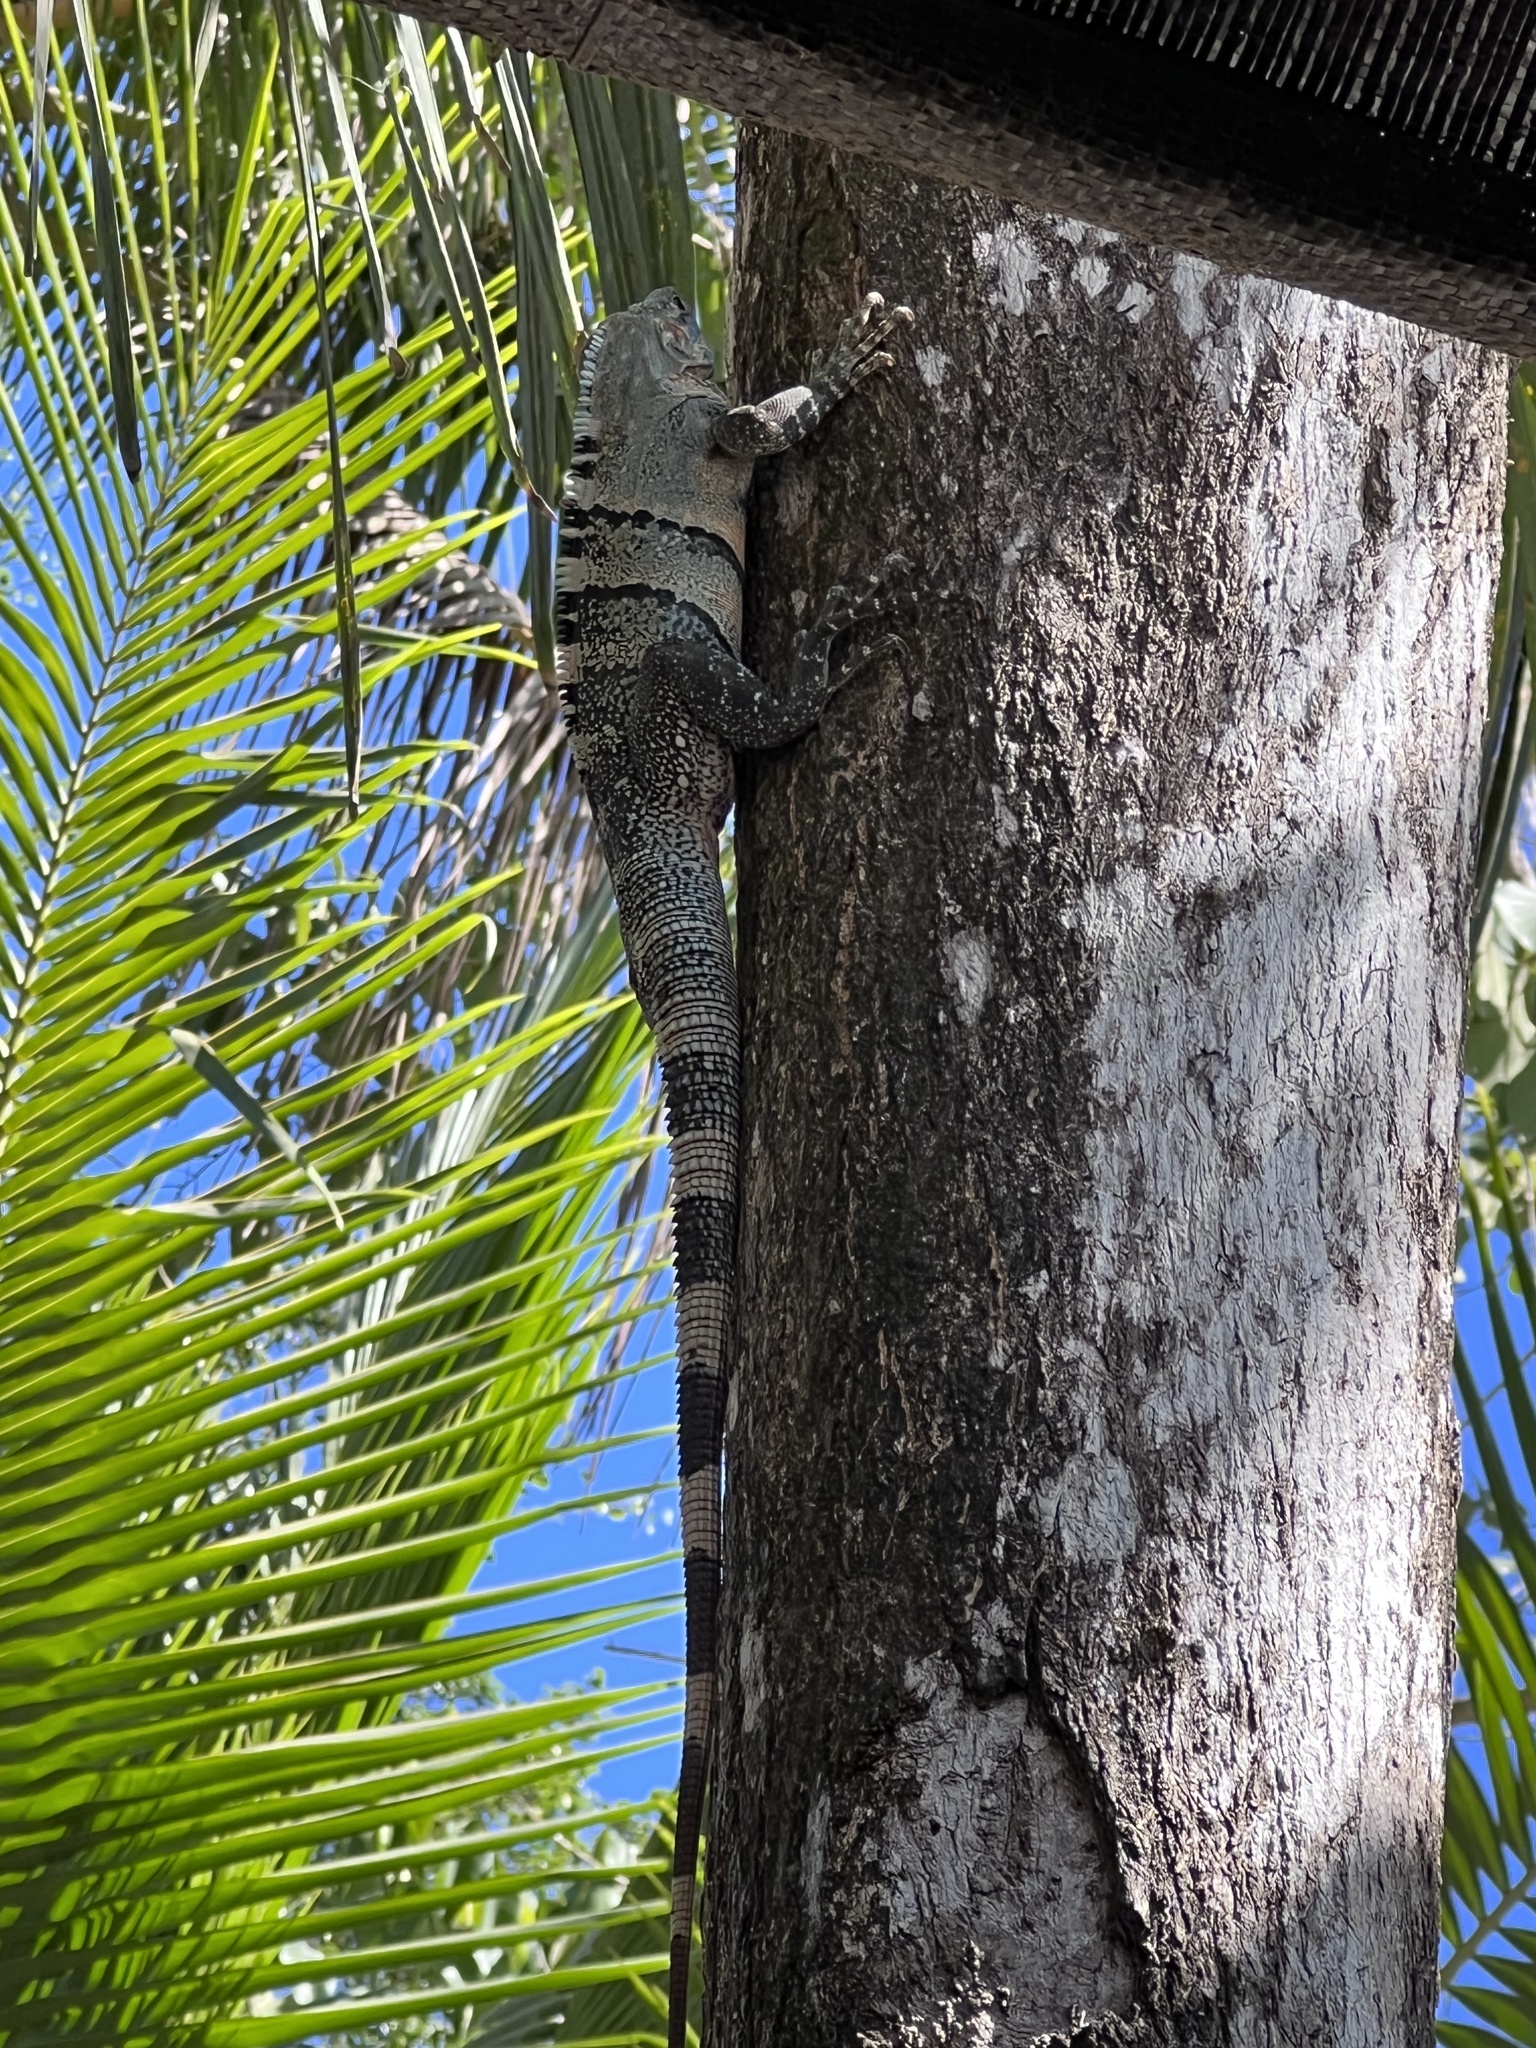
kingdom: Animalia
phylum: Chordata
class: Squamata
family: Iguanidae
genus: Ctenosaura
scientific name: Ctenosaura similis
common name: Black spiny-tailed iguana
